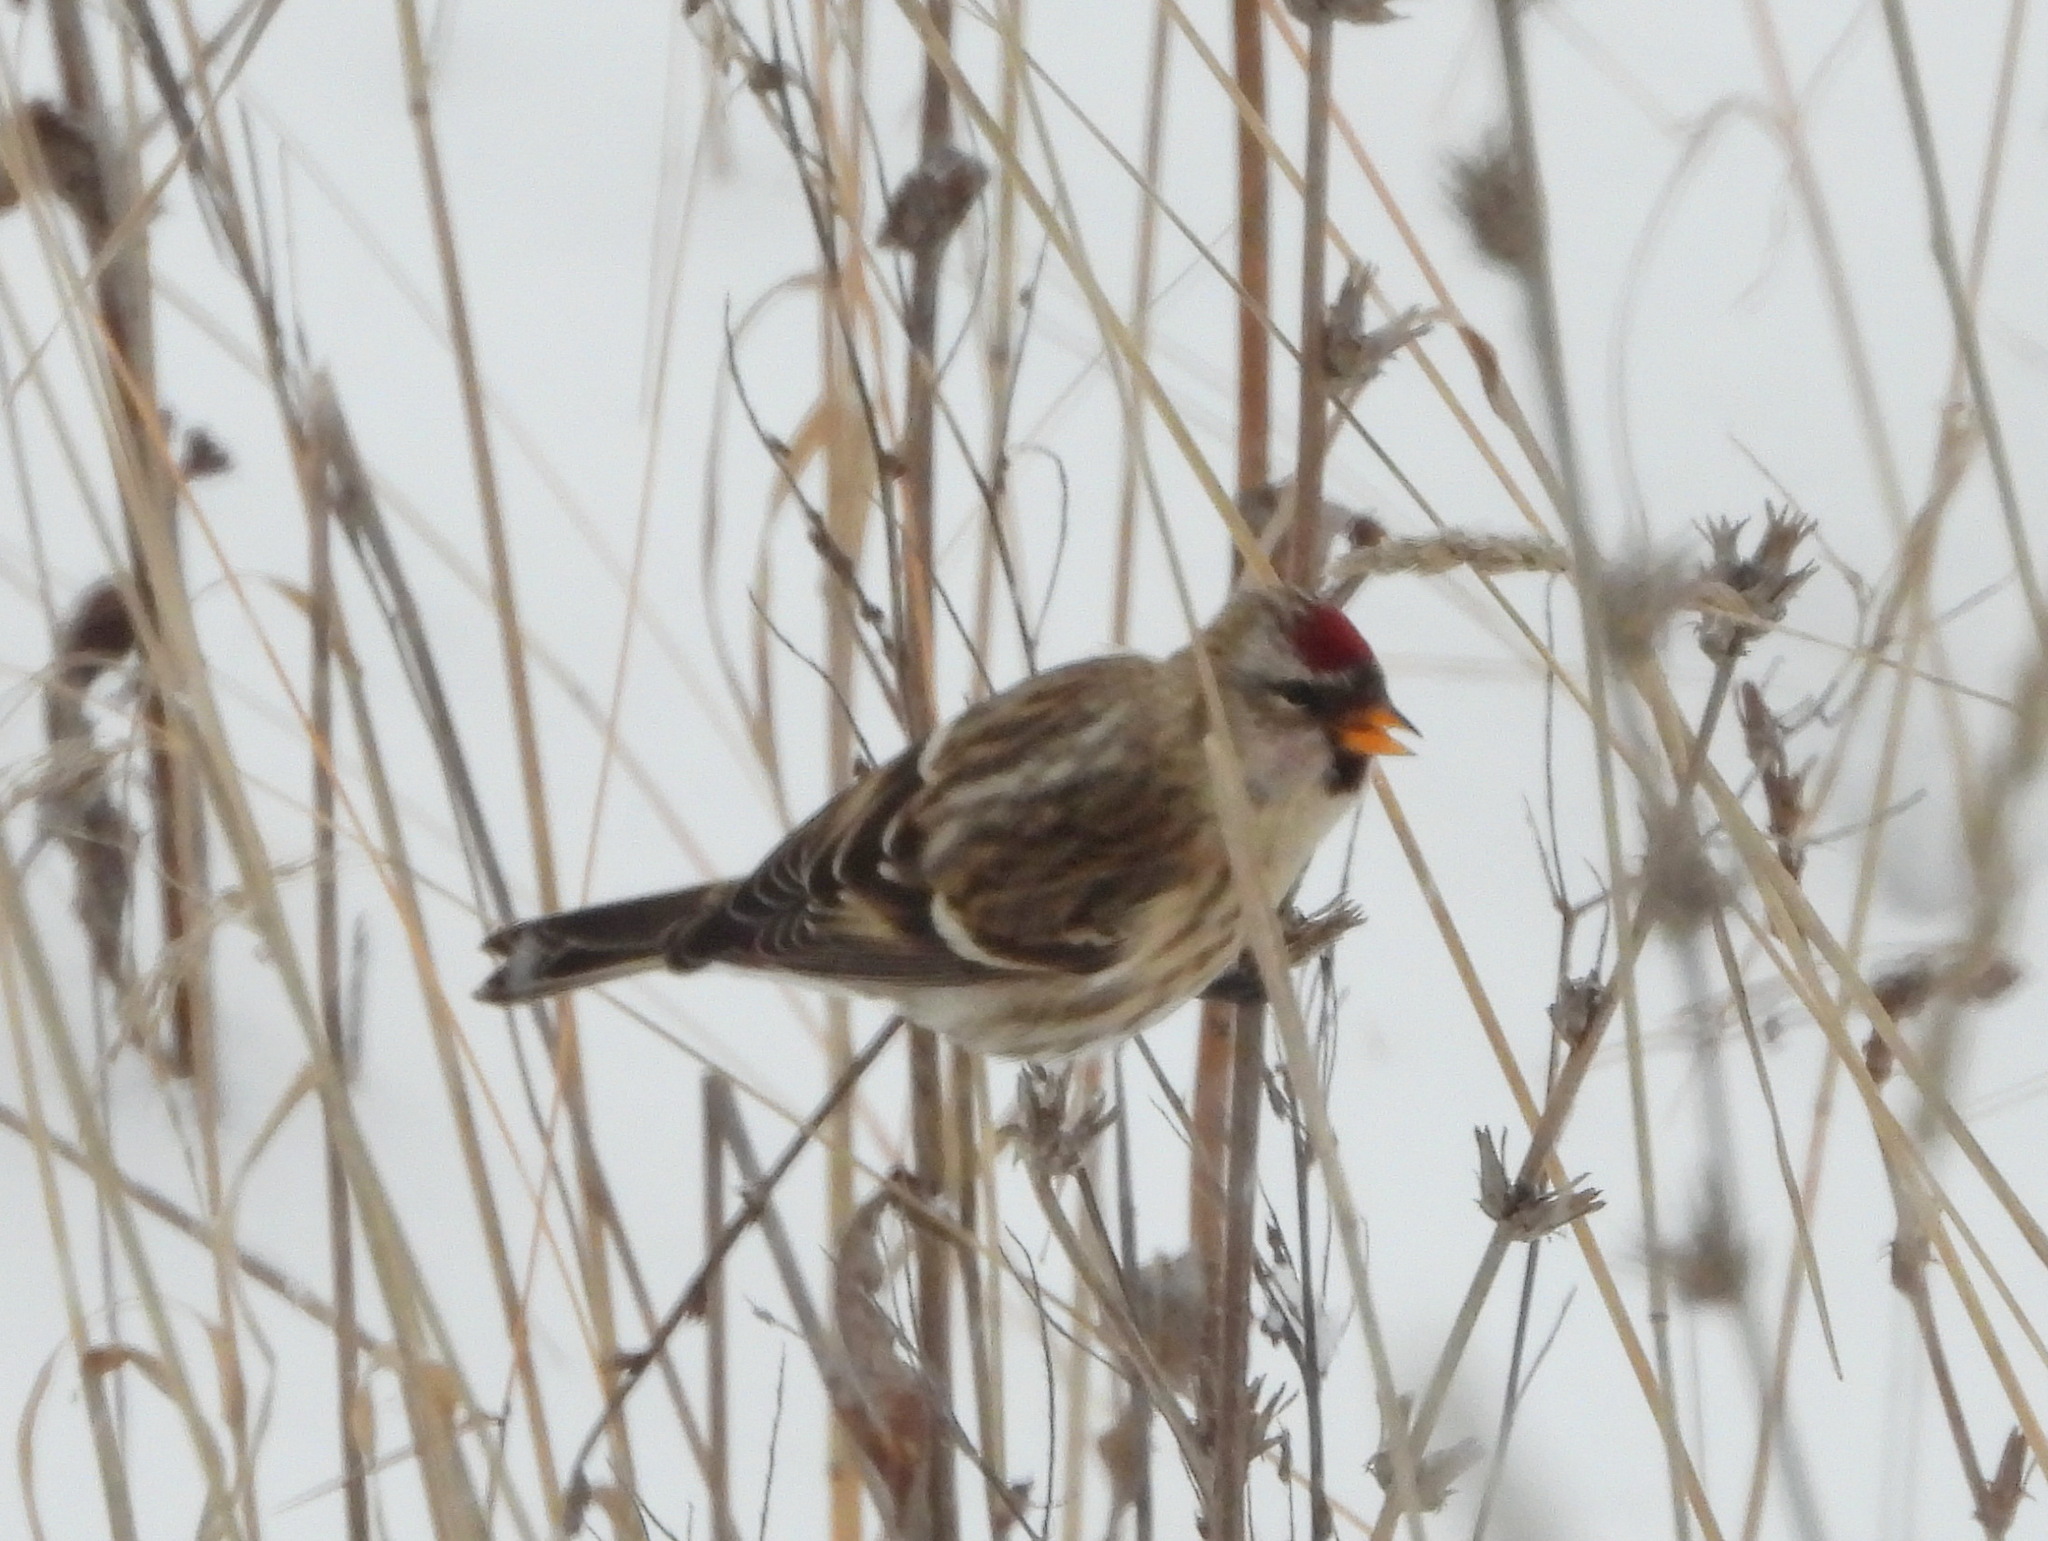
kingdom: Animalia
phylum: Chordata
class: Aves
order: Passeriformes
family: Fringillidae
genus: Acanthis
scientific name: Acanthis flammea
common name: Common redpoll
